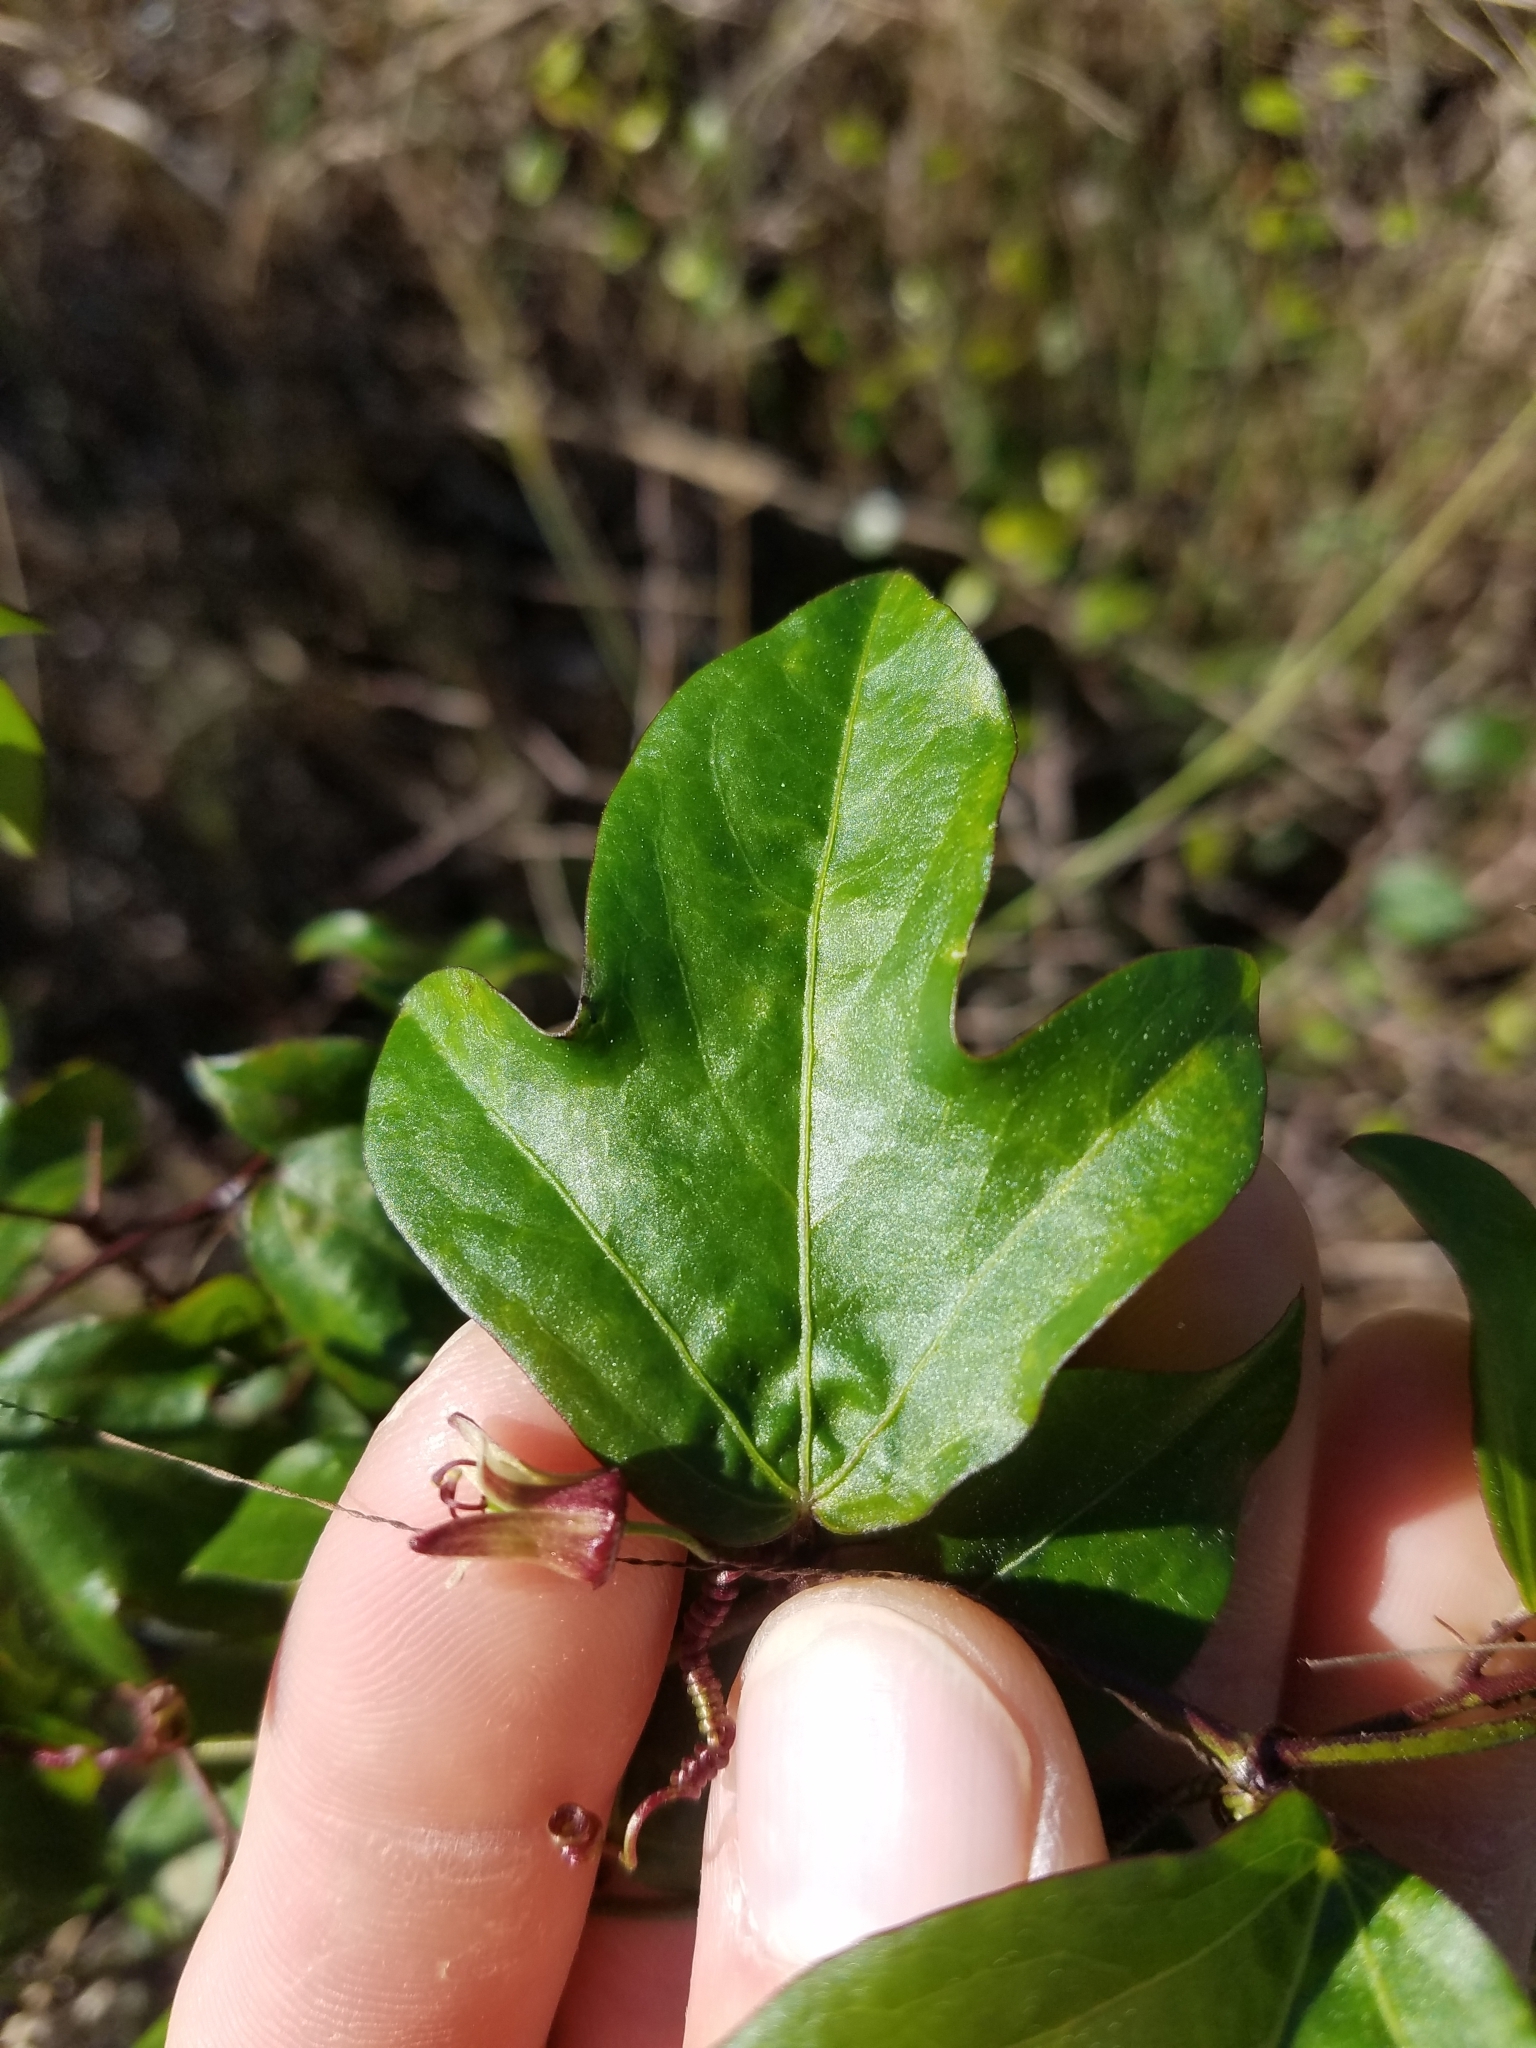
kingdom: Plantae
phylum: Tracheophyta
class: Magnoliopsida
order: Malpighiales
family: Passifloraceae
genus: Passiflora
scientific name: Passiflora pallida
